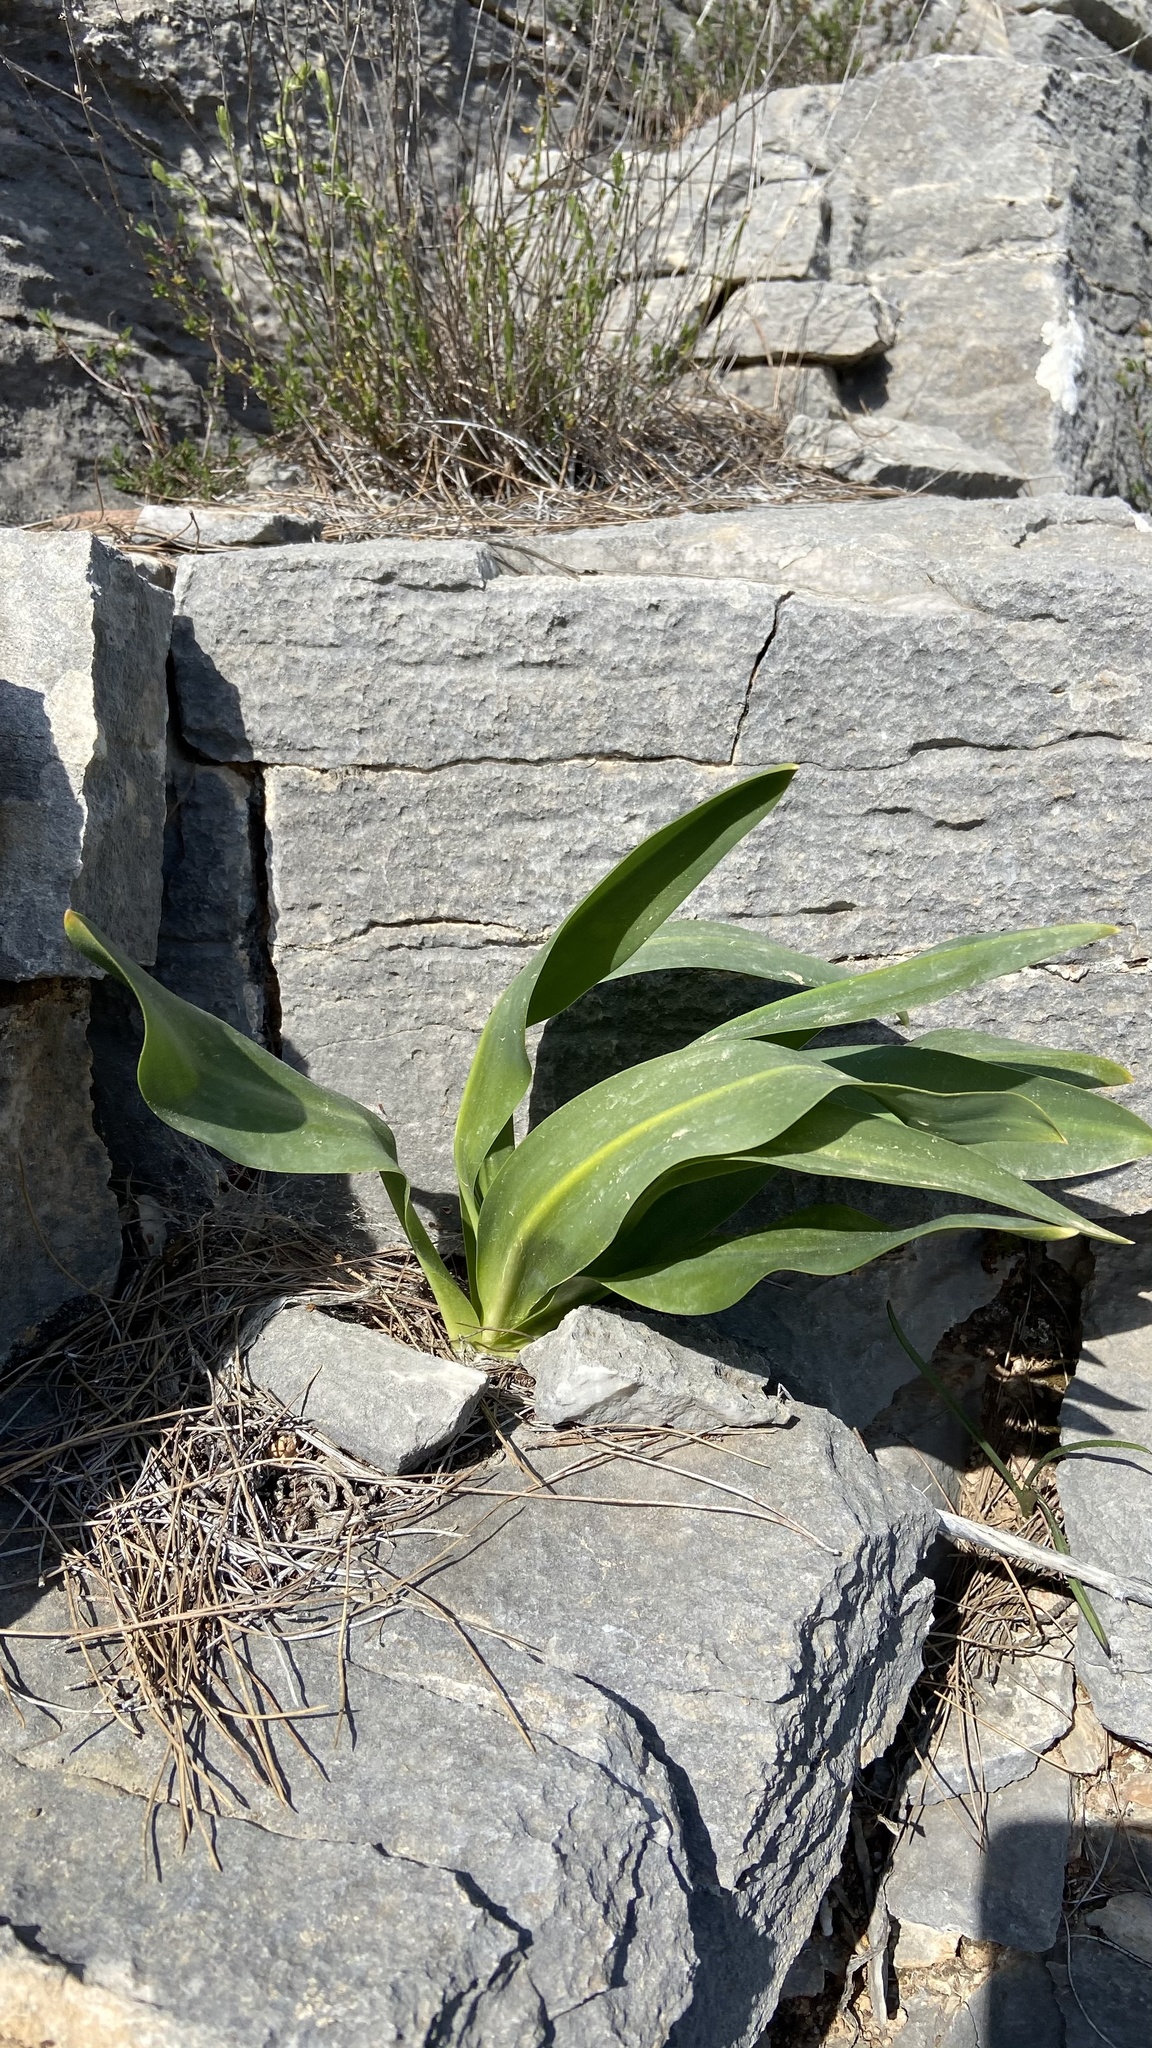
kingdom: Plantae
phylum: Tracheophyta
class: Liliopsida
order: Asparagales
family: Asparagaceae
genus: Drimia
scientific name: Drimia numidica
